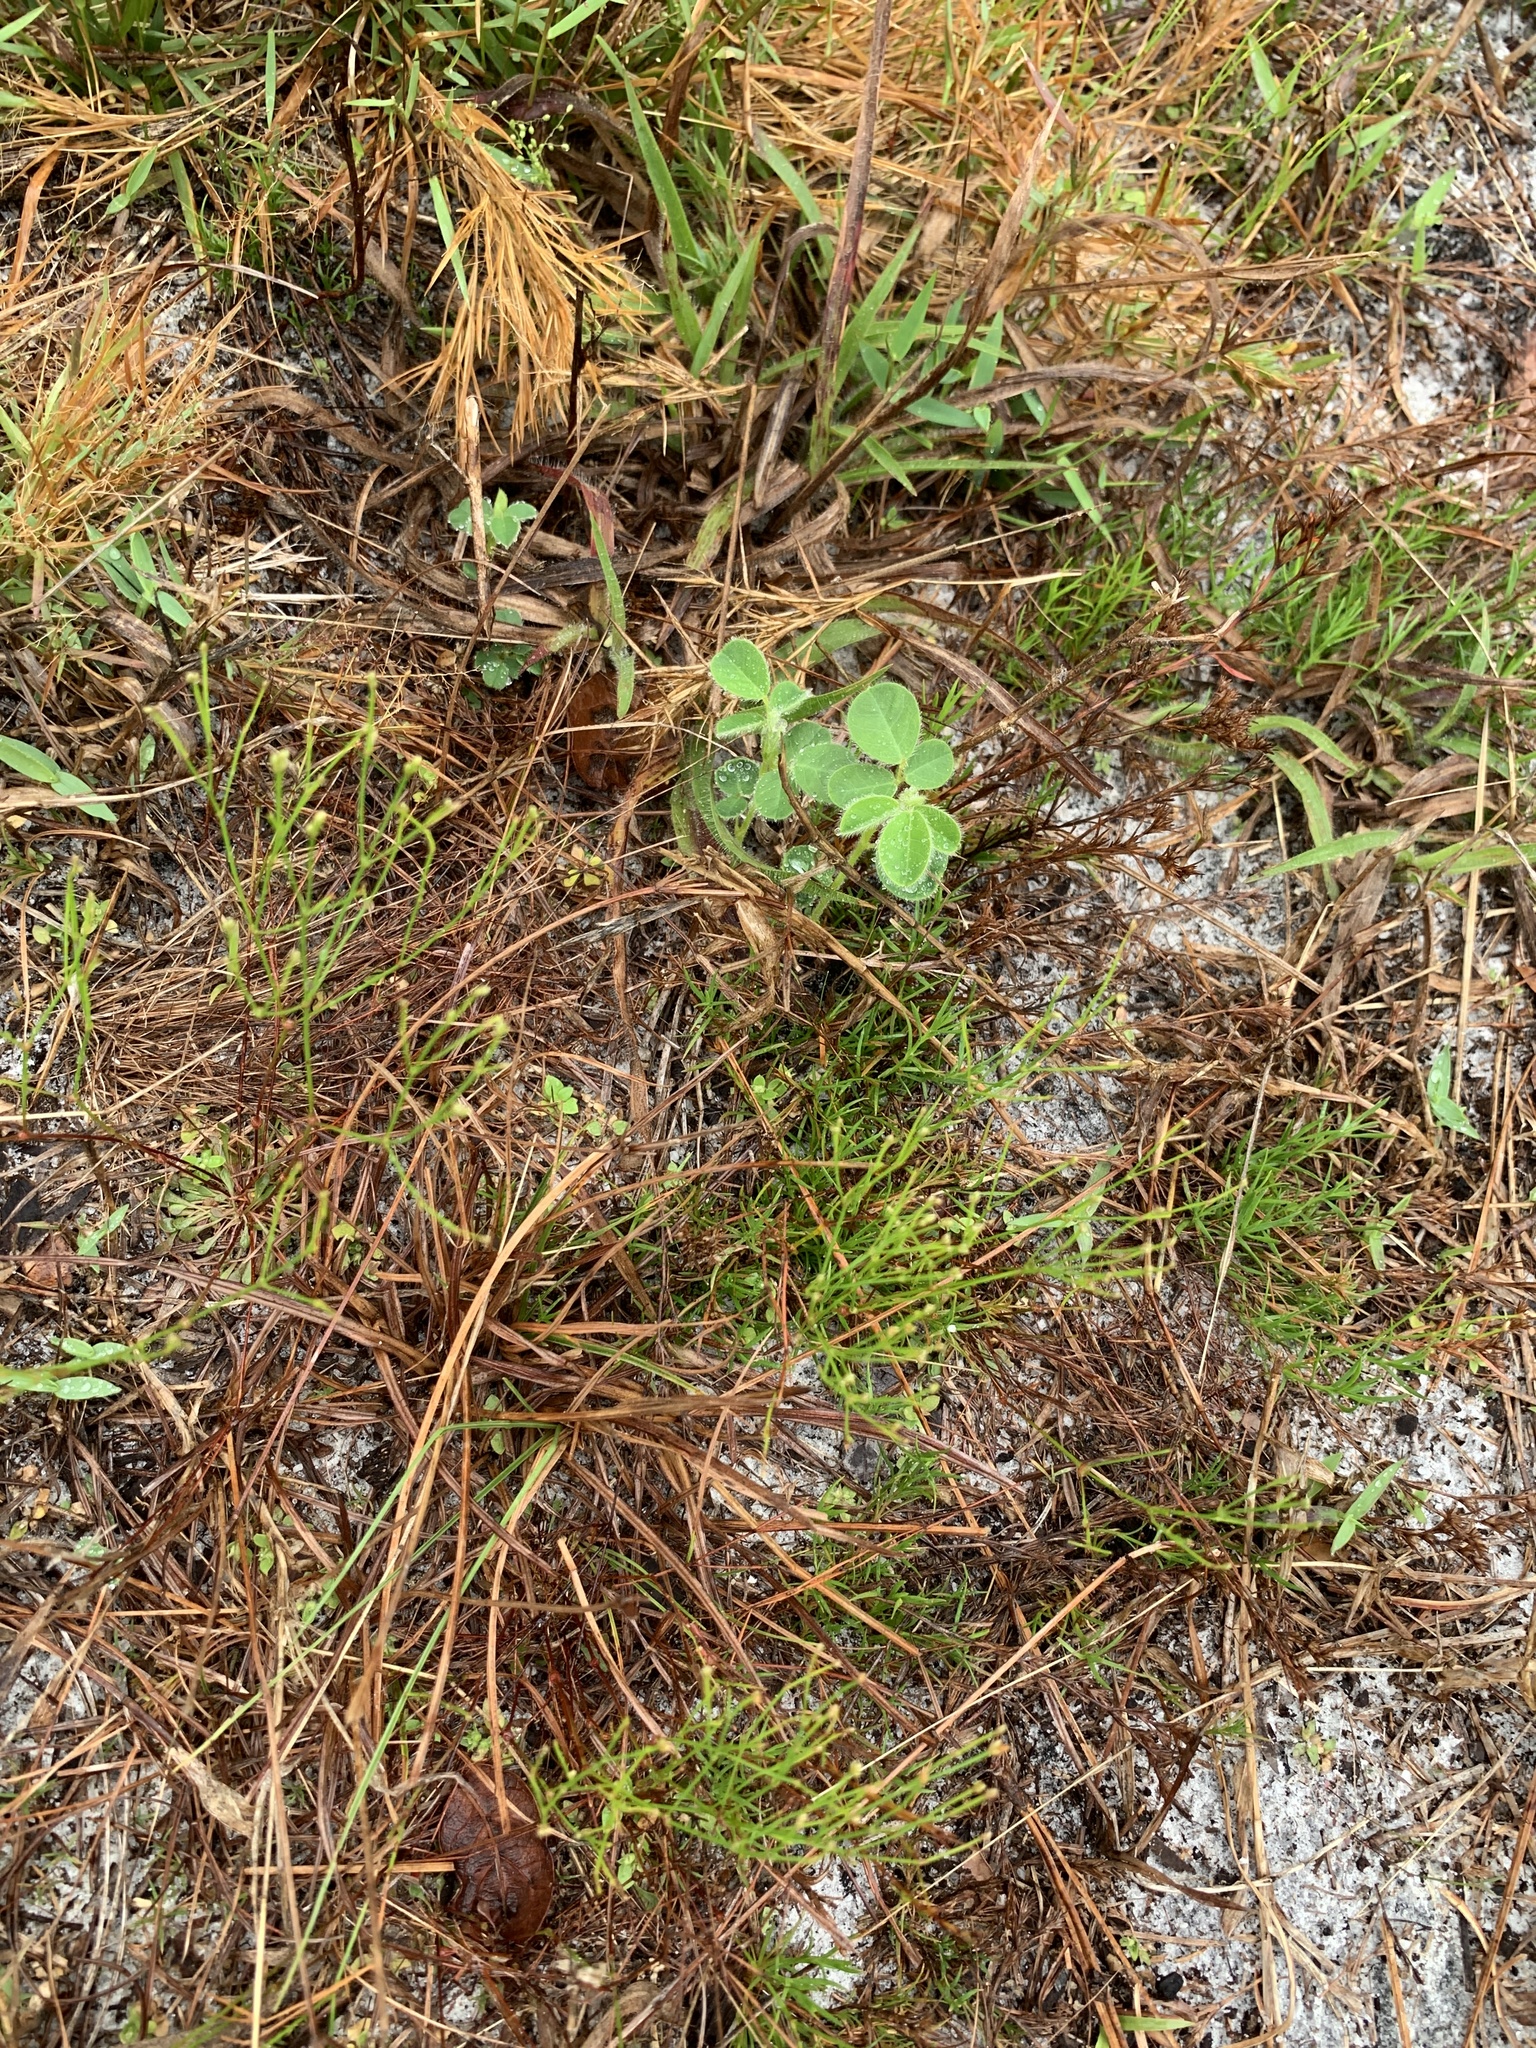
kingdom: Plantae
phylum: Tracheophyta
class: Magnoliopsida
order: Caryophyllales
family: Caryophyllaceae
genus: Stipulicida
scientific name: Stipulicida setacea
